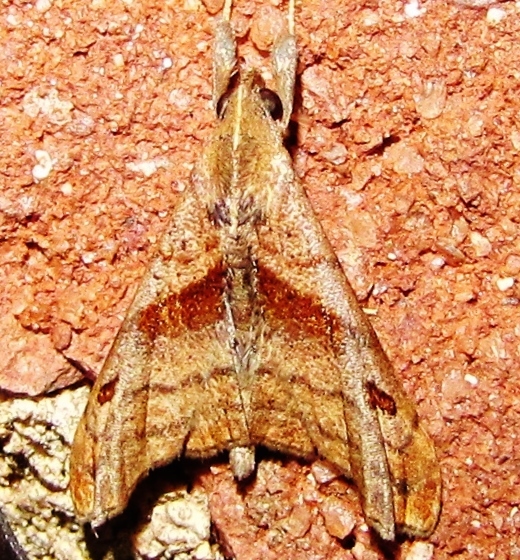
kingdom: Animalia
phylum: Arthropoda
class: Insecta
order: Lepidoptera
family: Erebidae
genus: Palthis
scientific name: Palthis angulalis
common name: Dark-spotted palthis moth
